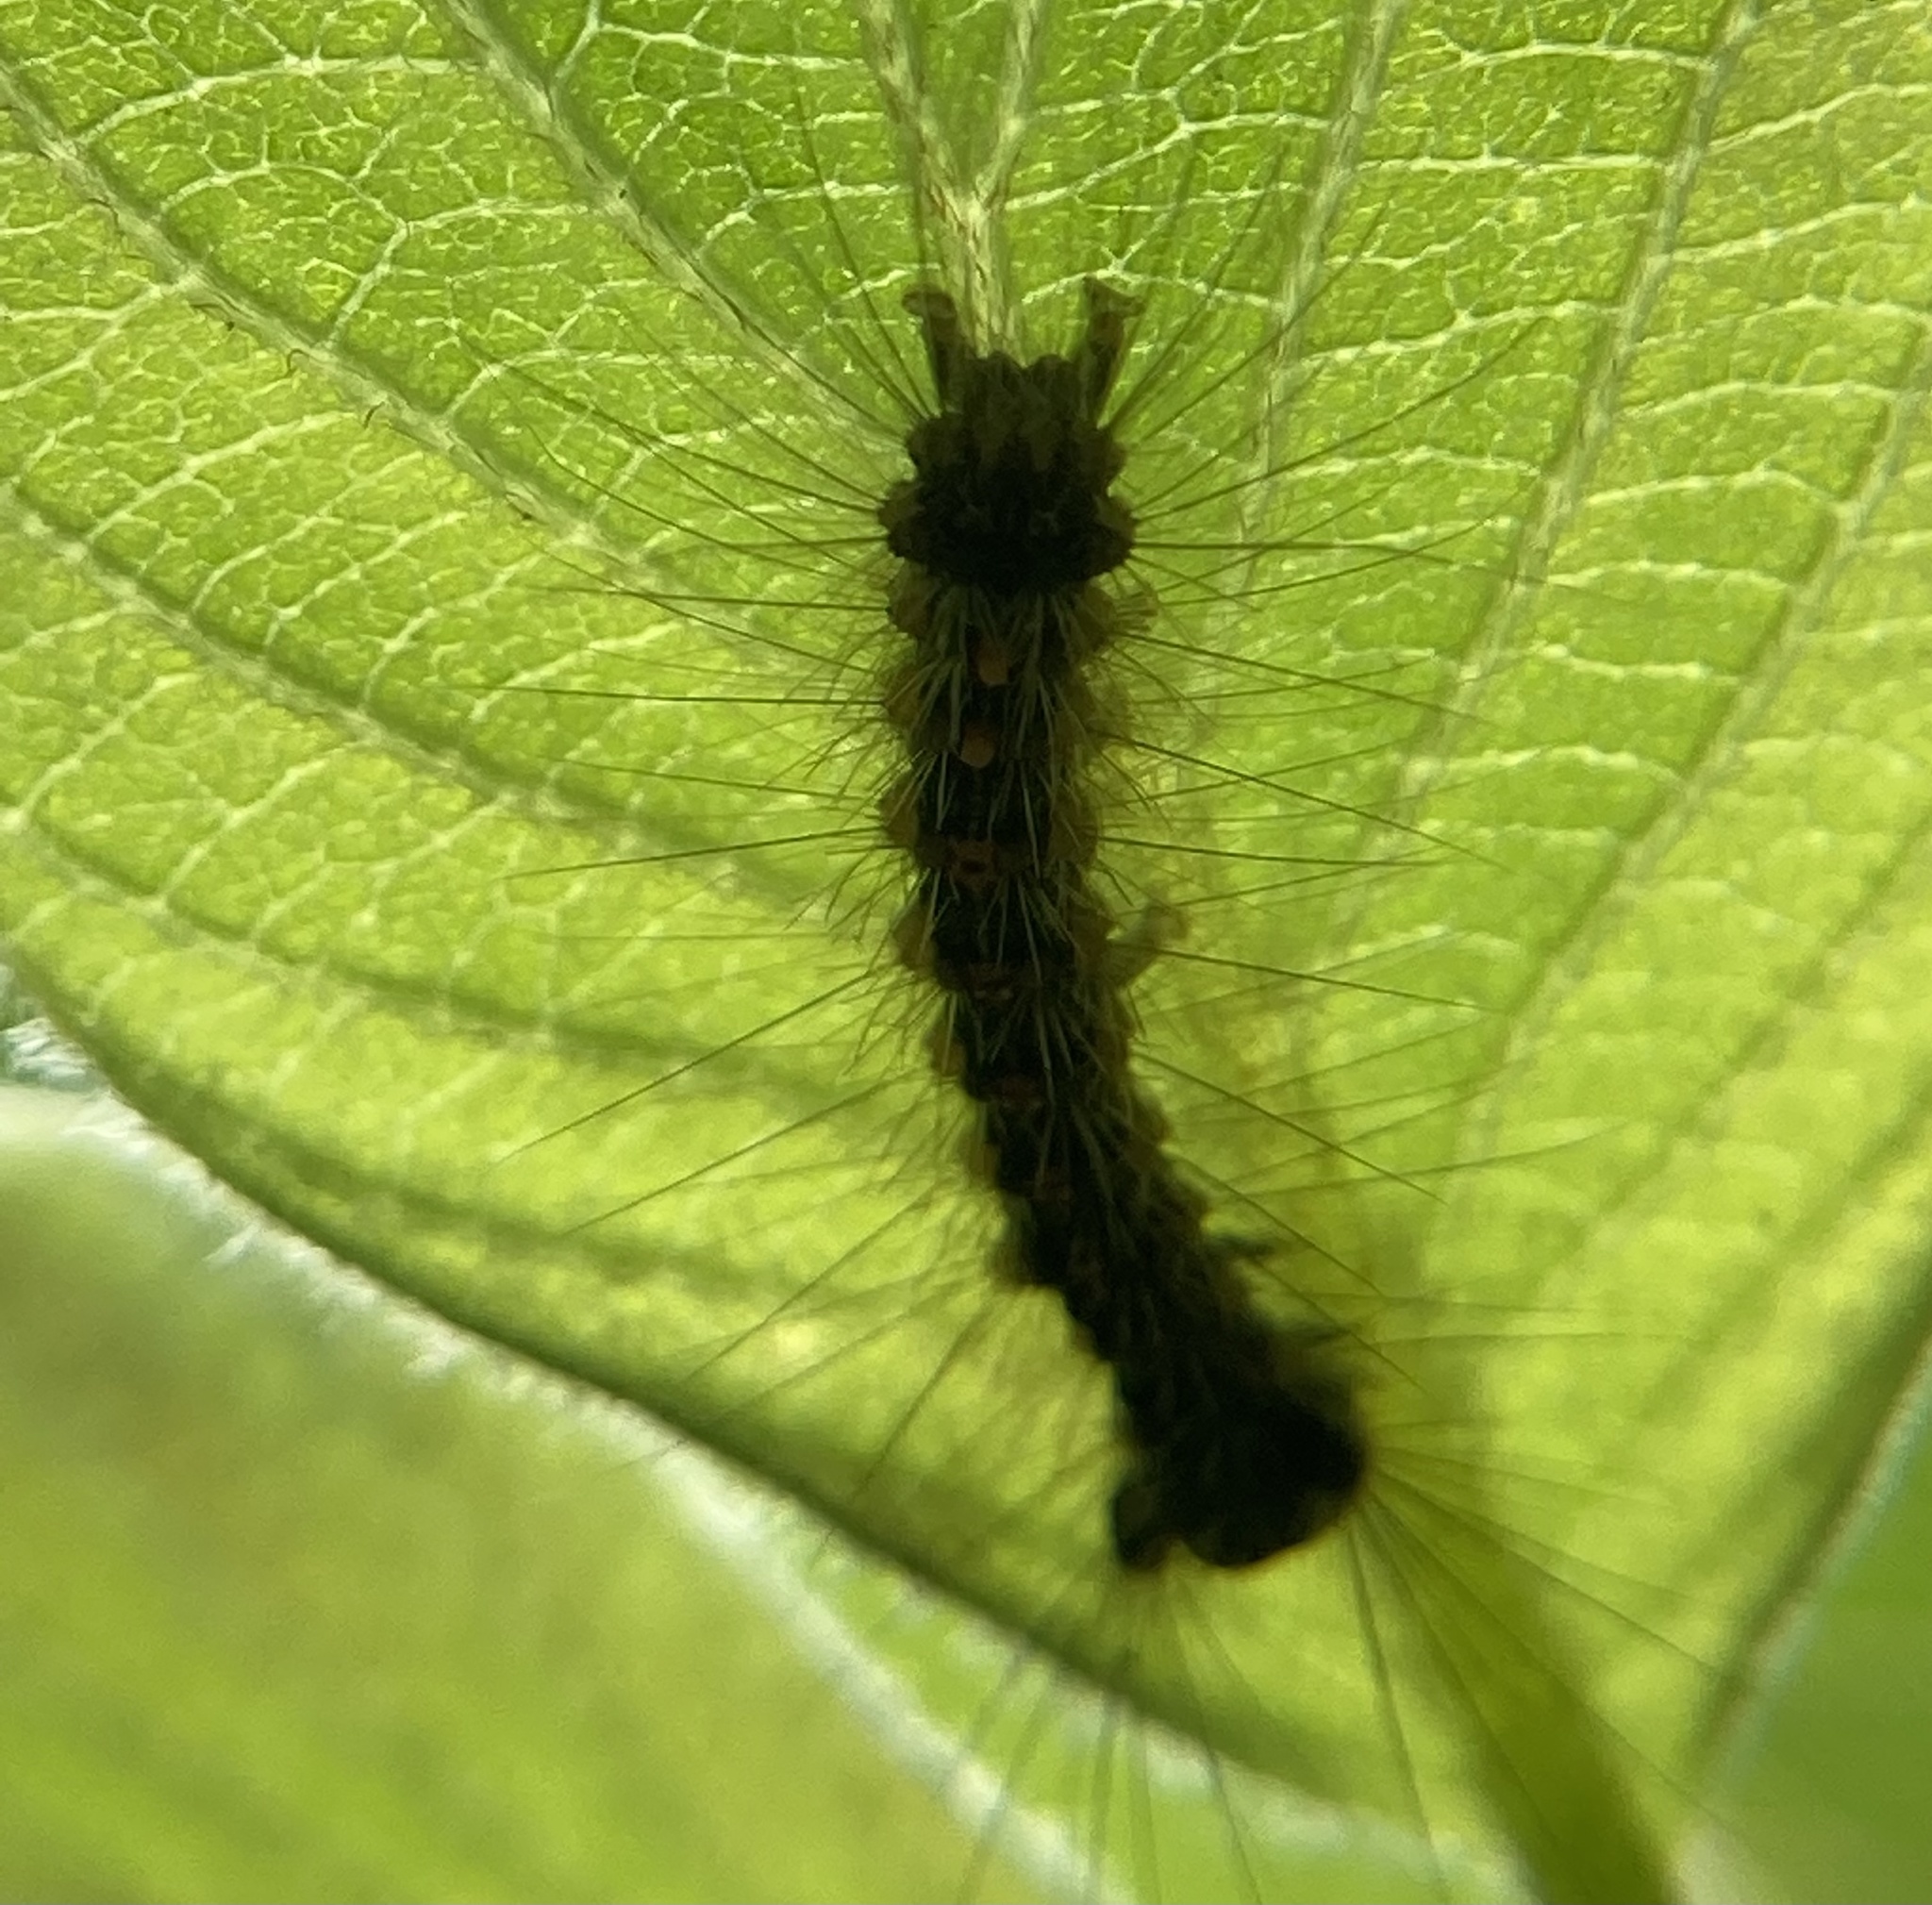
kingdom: Animalia
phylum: Arthropoda
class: Insecta
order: Lepidoptera
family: Erebidae
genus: Lymantria
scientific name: Lymantria dispar
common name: Gypsy moth
